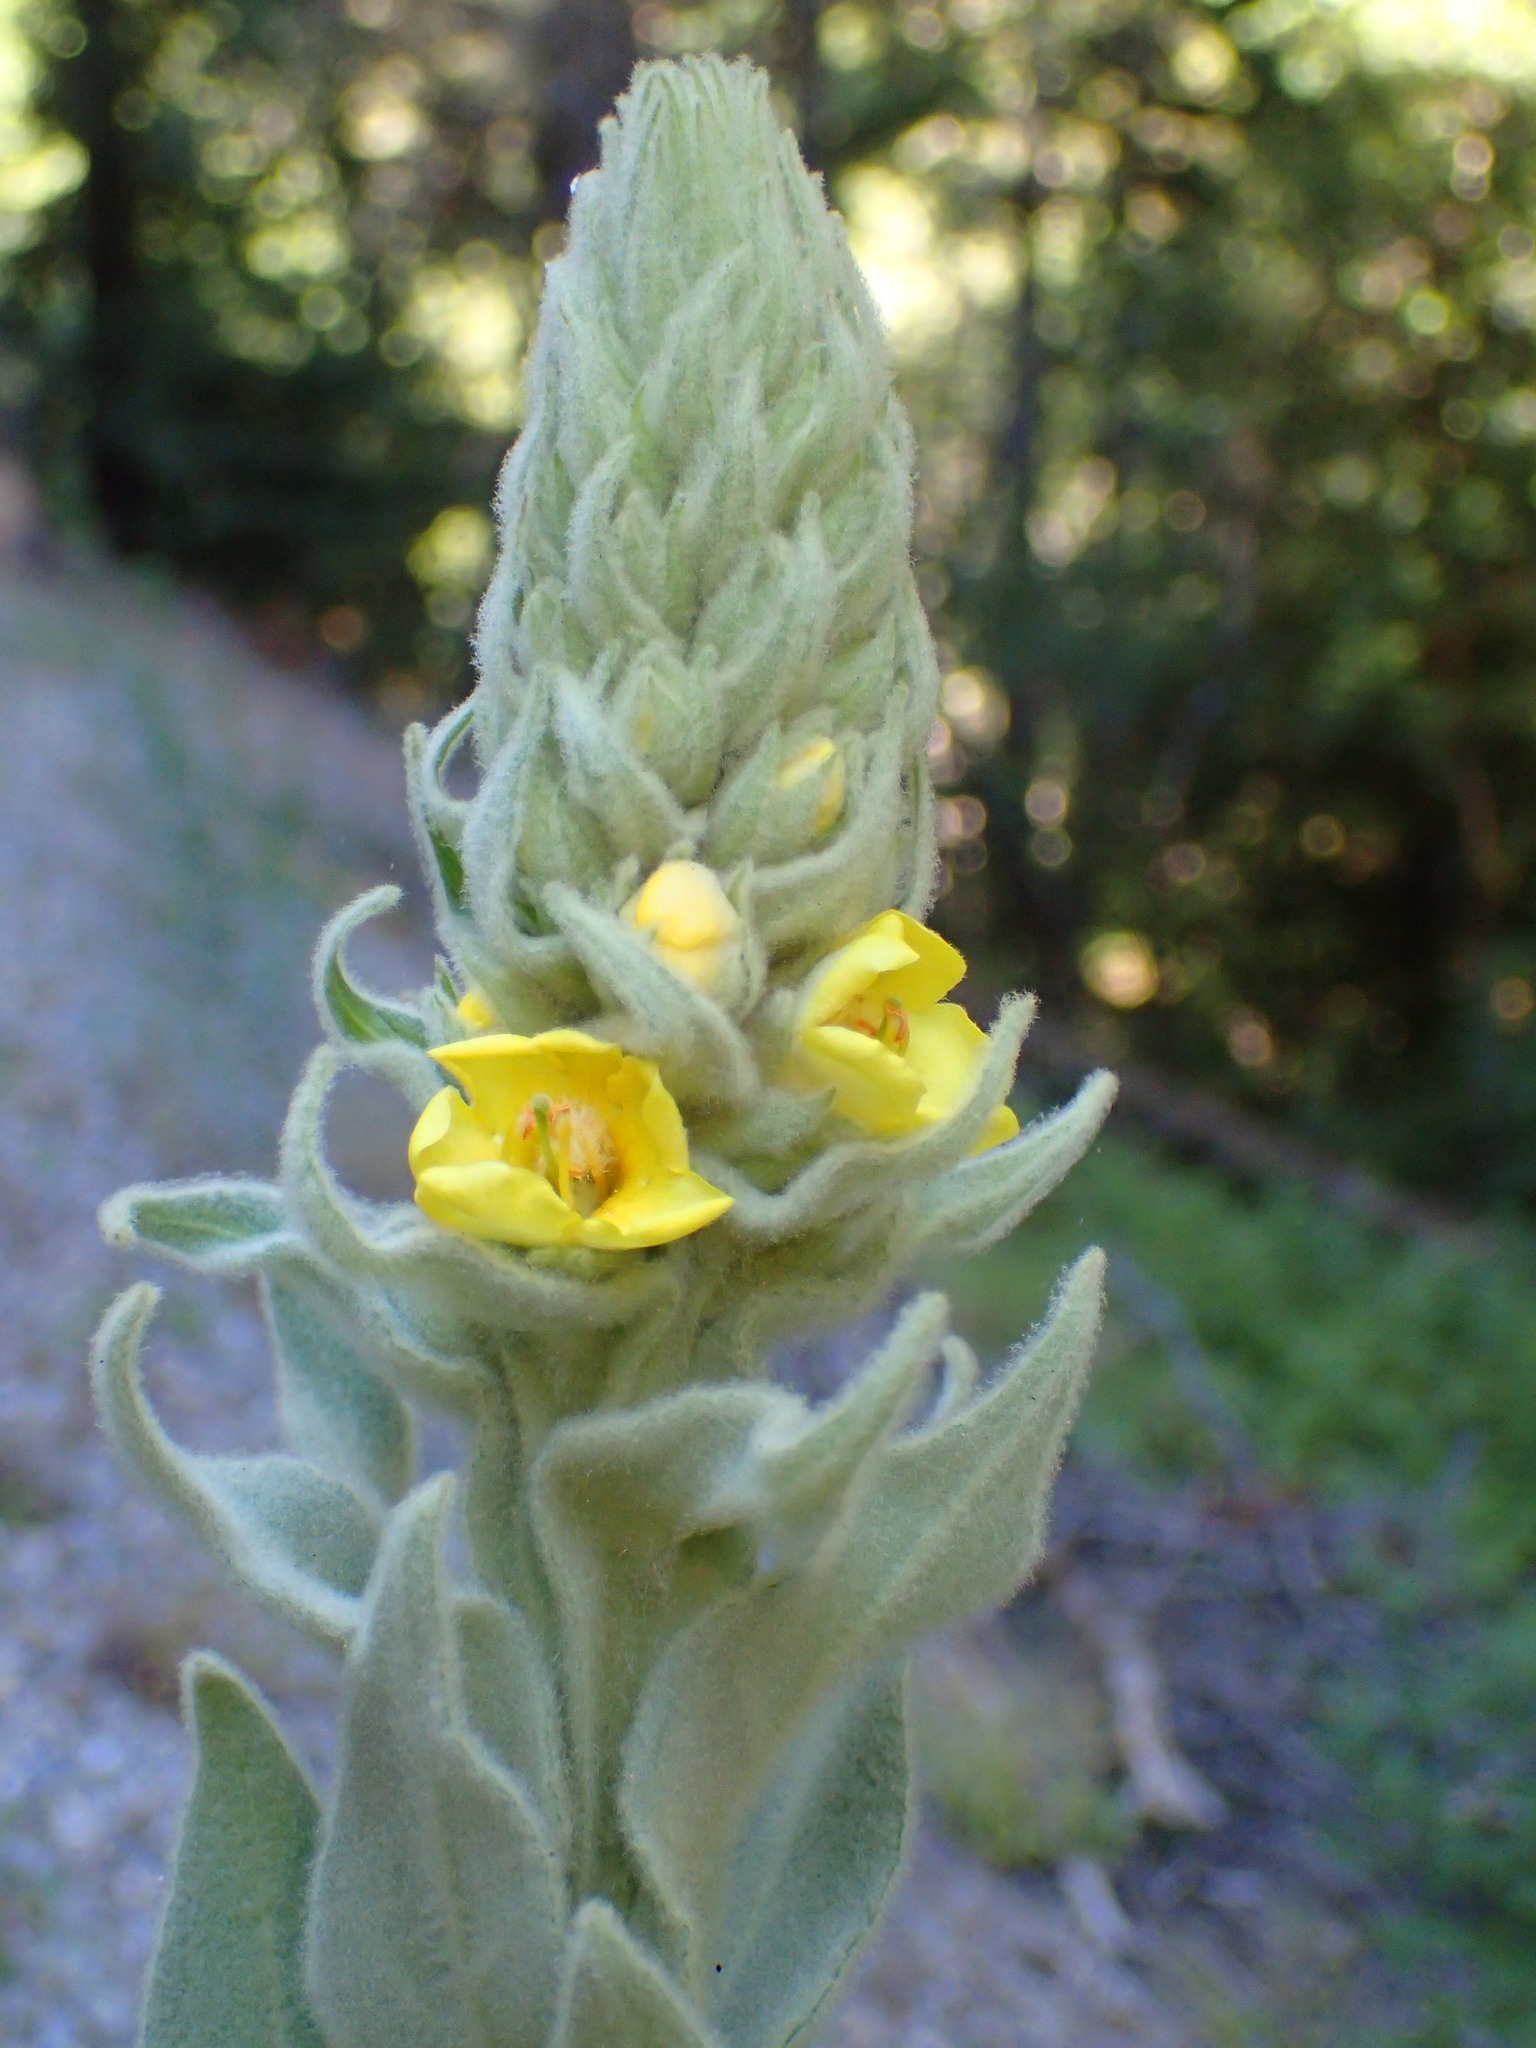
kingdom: Plantae
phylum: Tracheophyta
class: Magnoliopsida
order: Lamiales
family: Scrophulariaceae
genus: Verbascum
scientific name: Verbascum thapsus
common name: Common mullein
